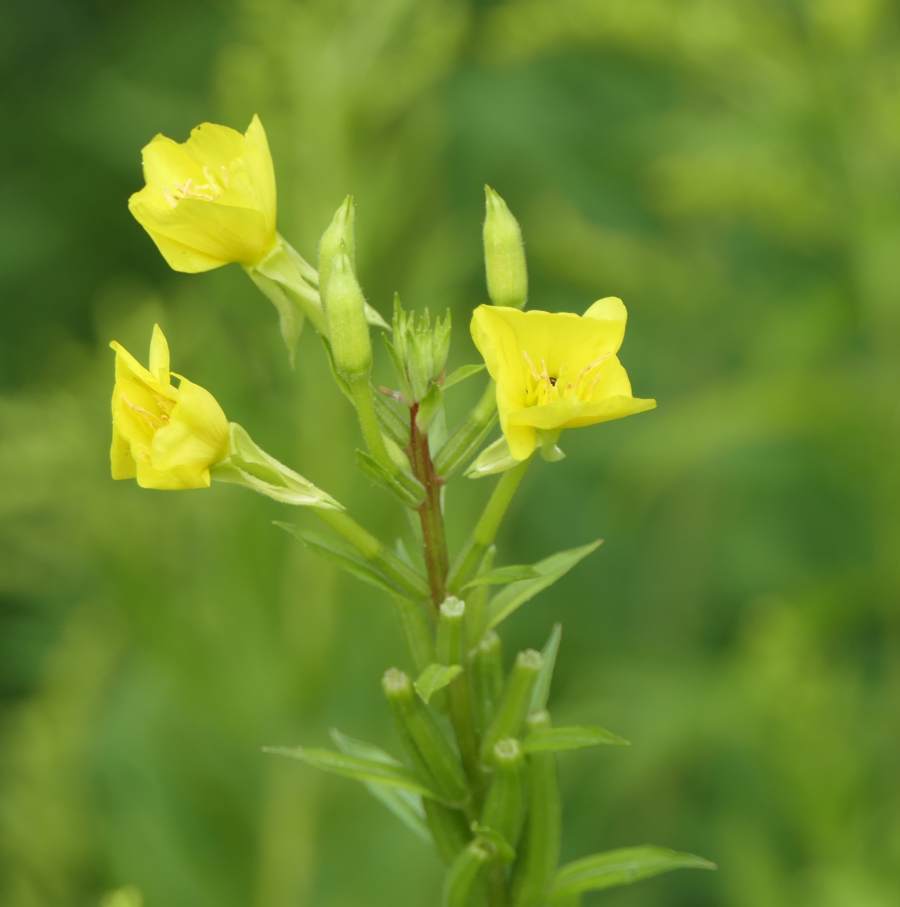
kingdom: Plantae
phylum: Tracheophyta
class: Magnoliopsida
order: Myrtales
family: Onagraceae
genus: Oenothera
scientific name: Oenothera biennis
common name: Common evening-primrose
